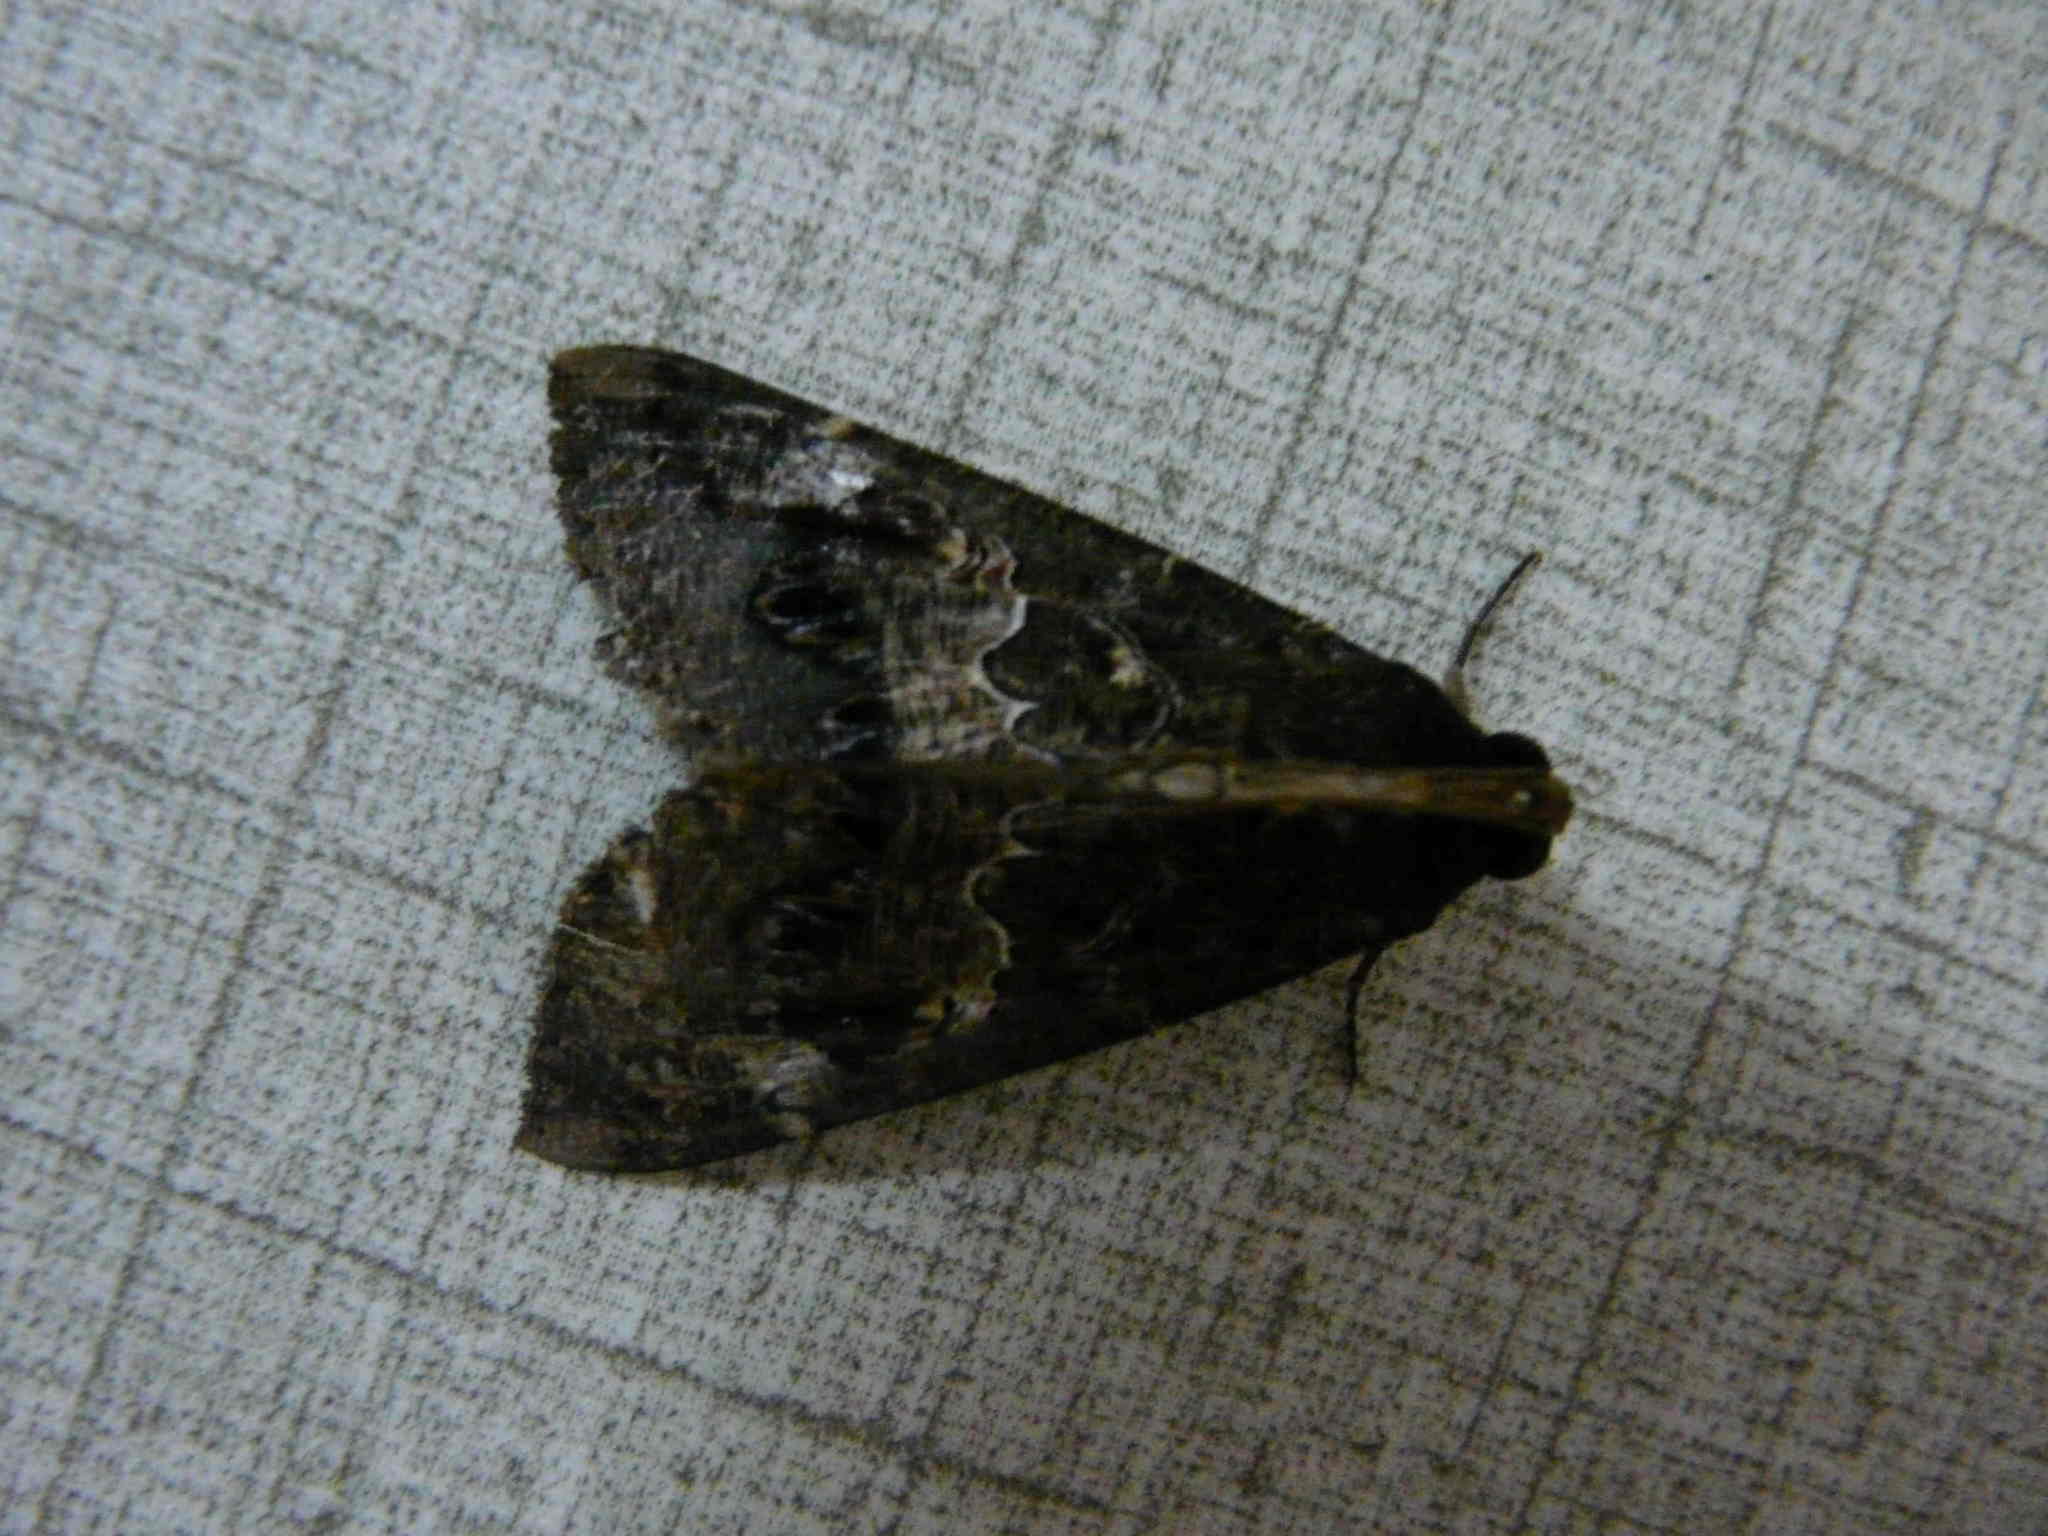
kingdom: Animalia
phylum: Arthropoda
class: Insecta
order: Lepidoptera
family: Erebidae
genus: Sphingomorpha
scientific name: Sphingomorpha chlorea
